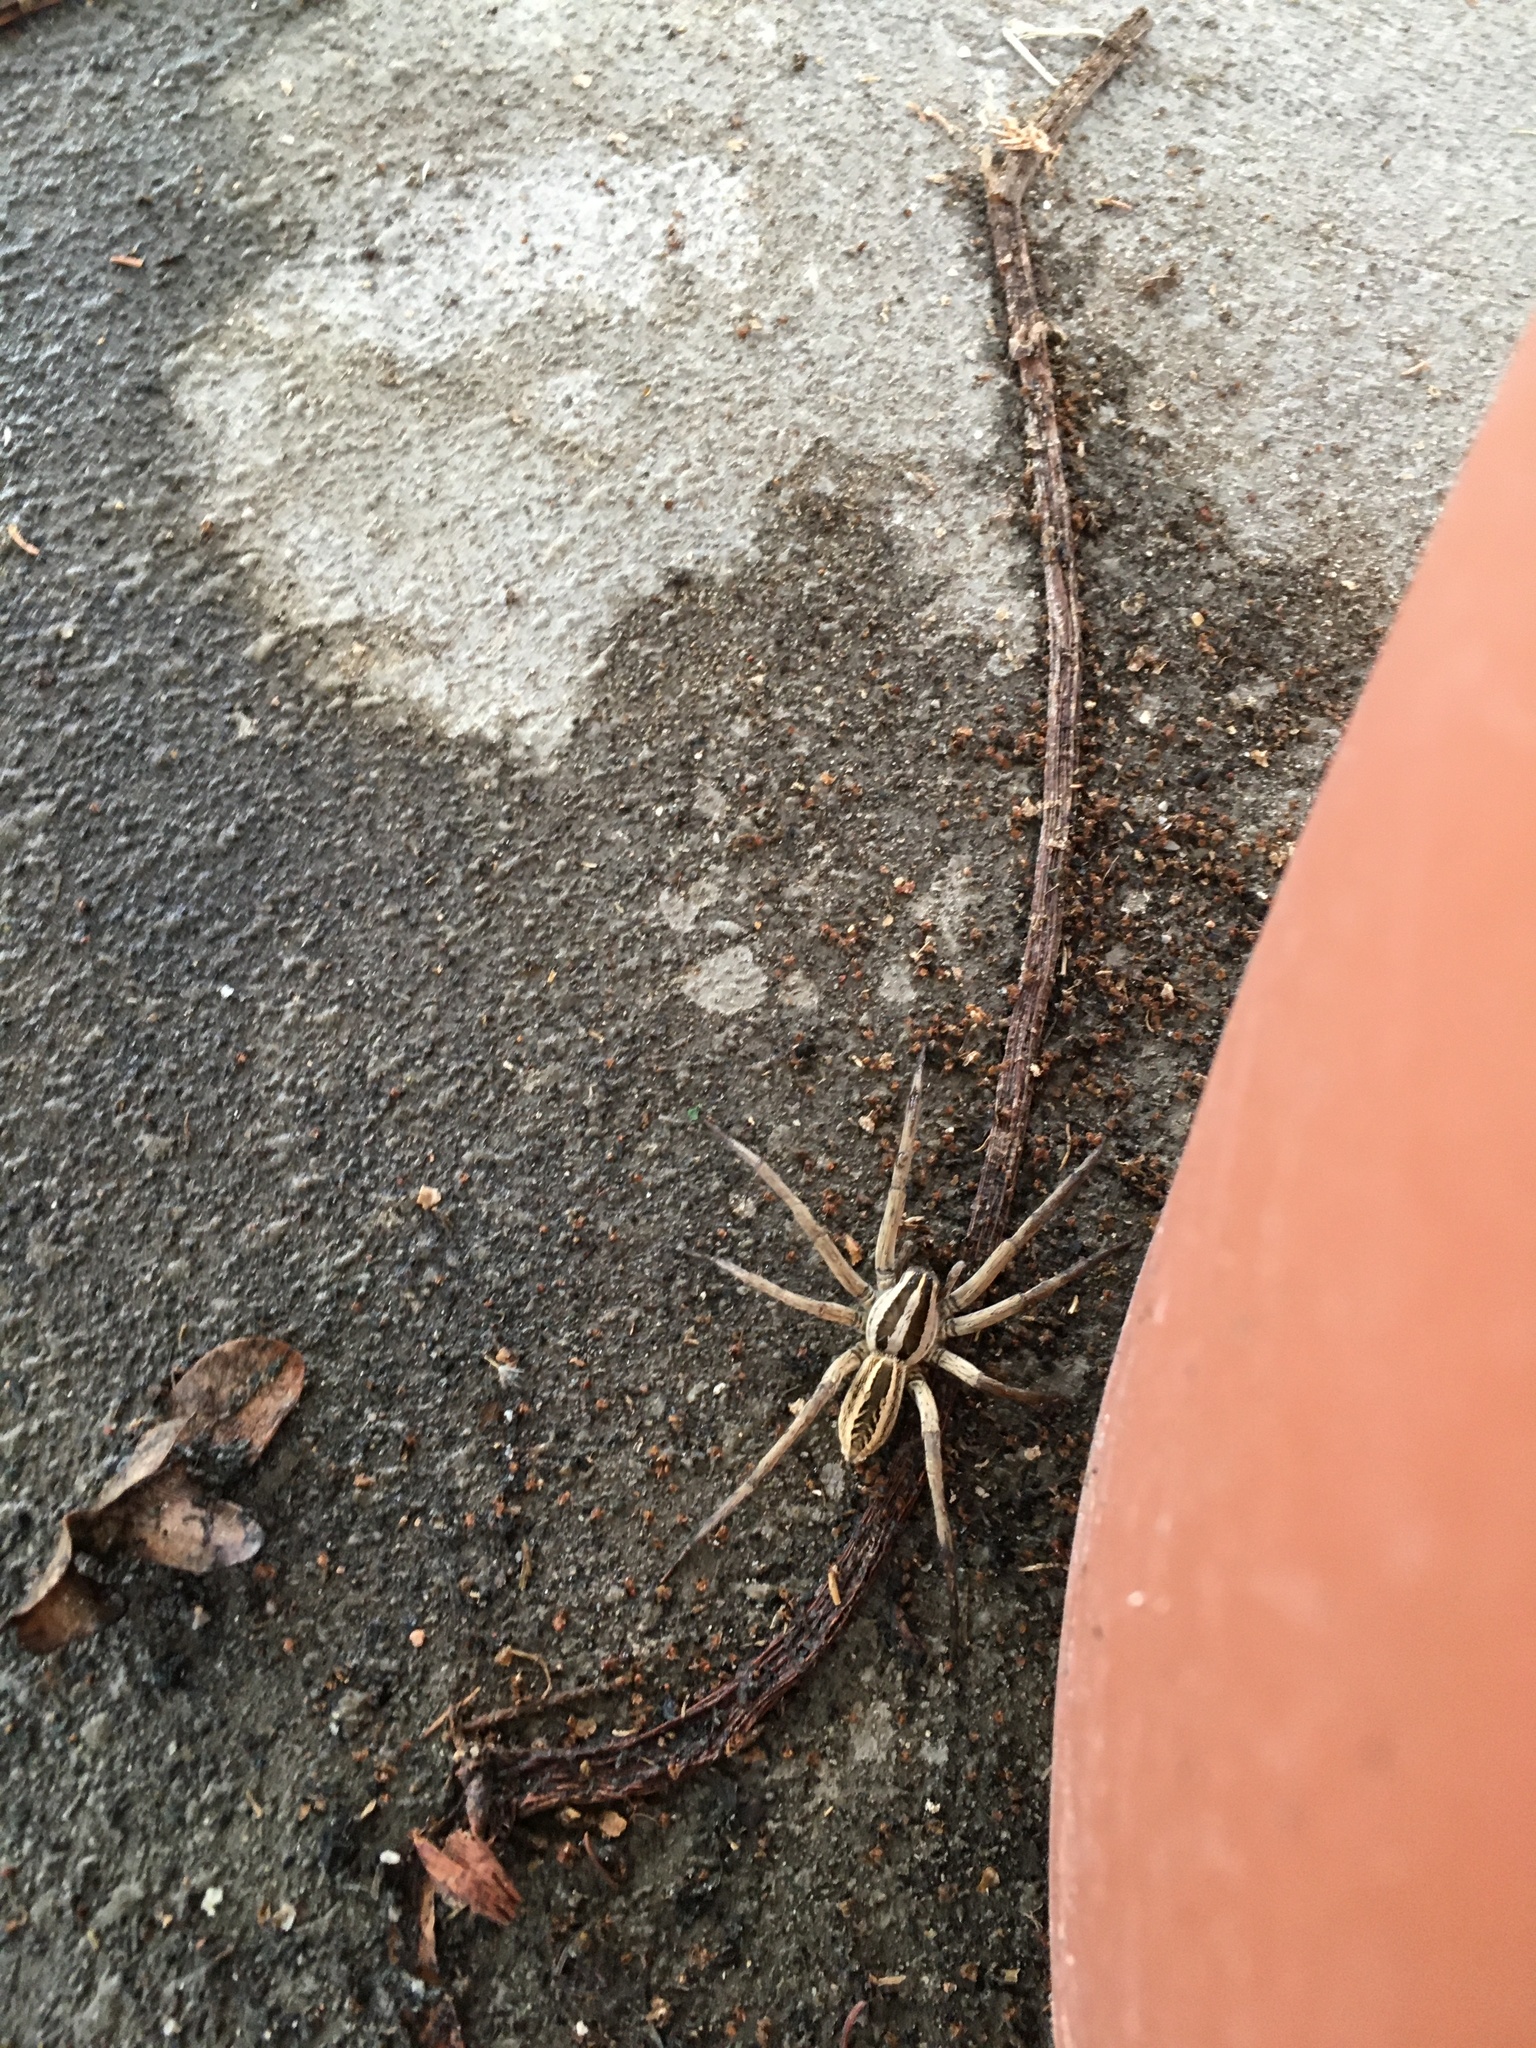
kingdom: Animalia
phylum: Arthropoda
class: Arachnida
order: Araneae
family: Lycosidae
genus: Rabidosa
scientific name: Rabidosa rabida
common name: Rabid wolf spider
